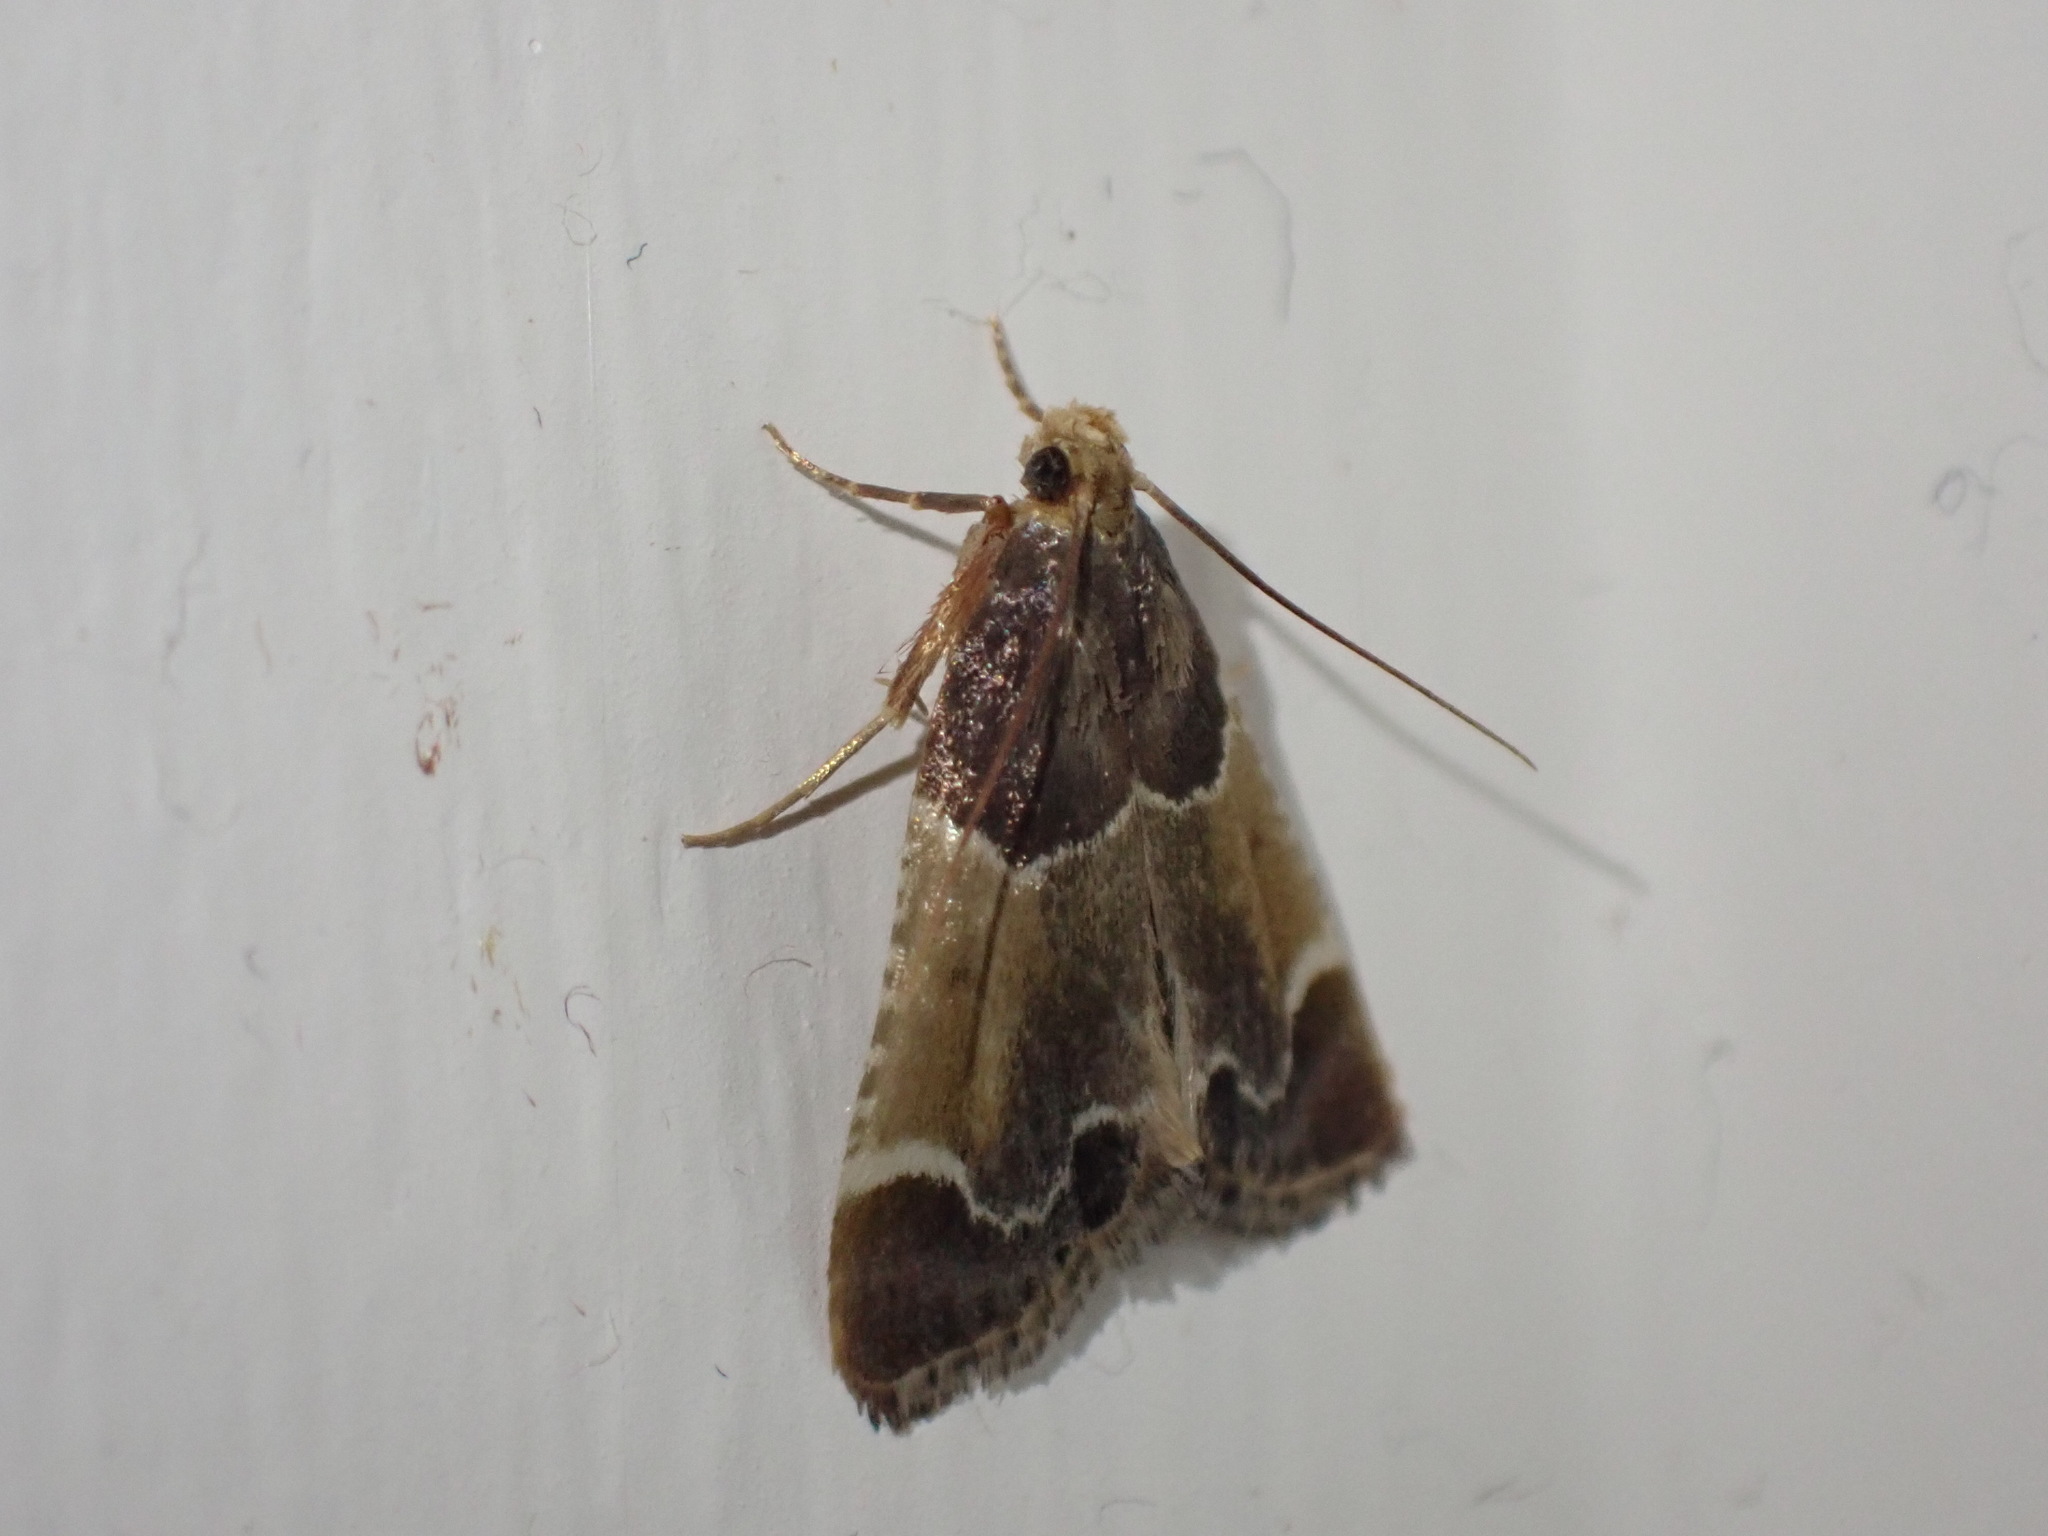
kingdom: Animalia
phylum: Arthropoda
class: Insecta
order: Lepidoptera
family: Pyralidae
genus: Pyralis
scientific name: Pyralis farinalis
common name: Meal moth
